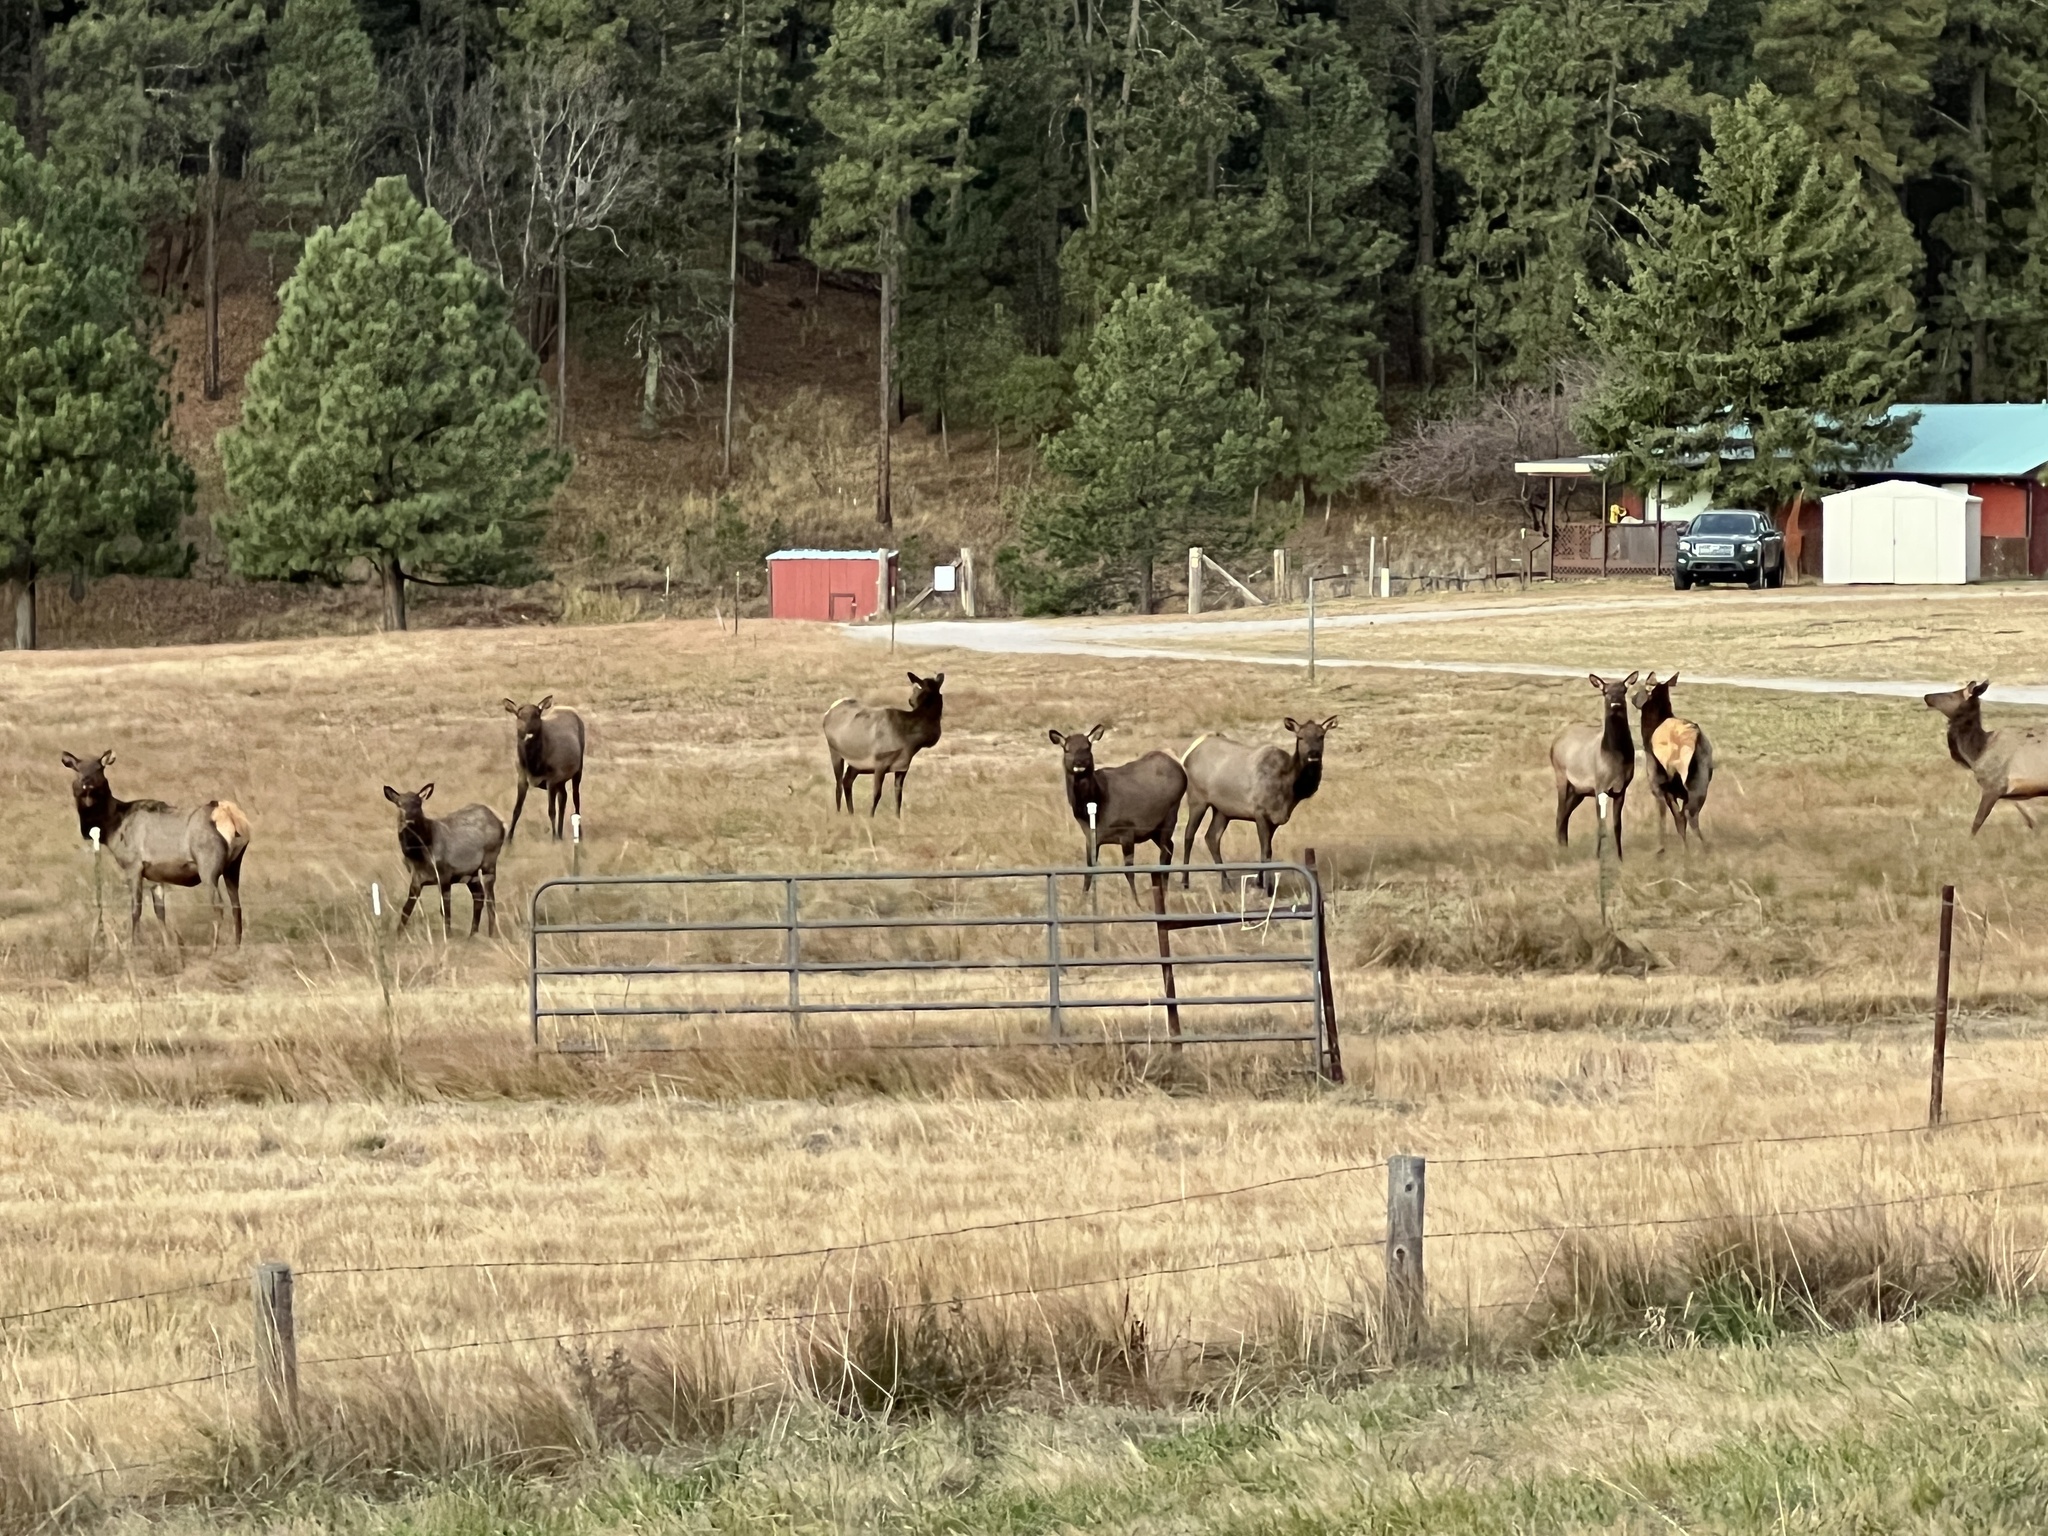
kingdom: Animalia
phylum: Chordata
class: Mammalia
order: Artiodactyla
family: Cervidae
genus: Cervus
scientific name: Cervus elaphus
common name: Red deer
